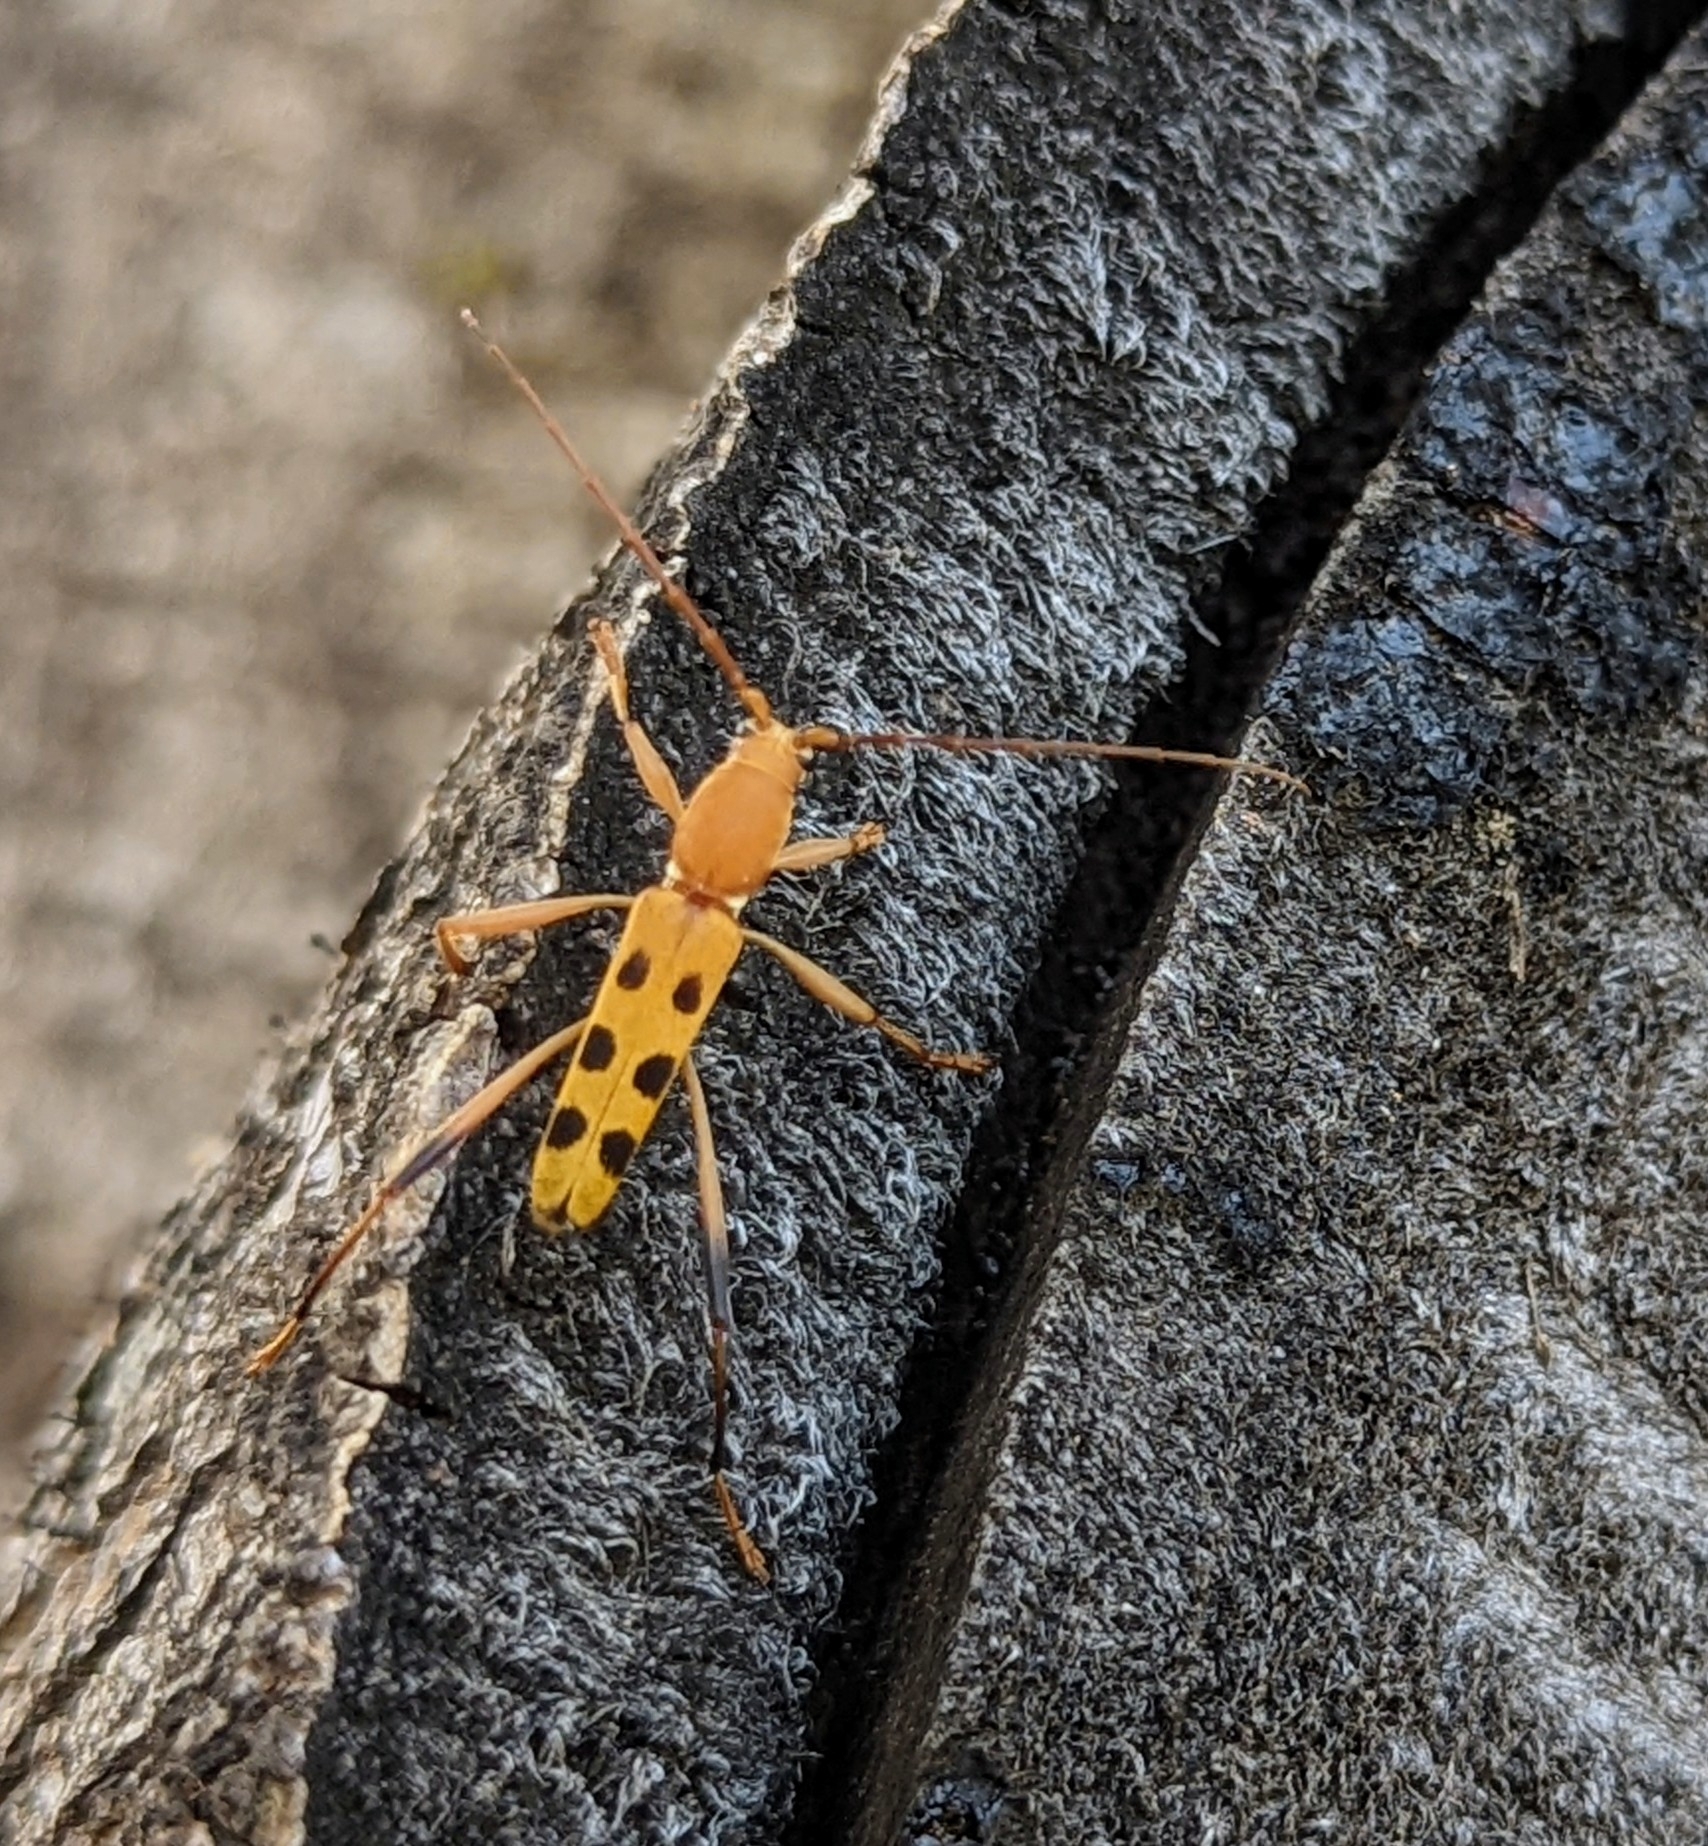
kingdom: Animalia
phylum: Arthropoda
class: Insecta
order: Coleoptera
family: Cerambycidae
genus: Grammographus
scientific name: Grammographus balyi
